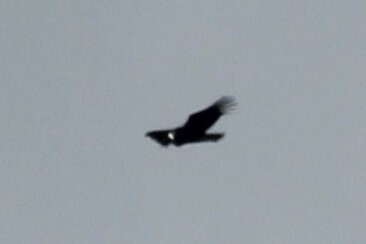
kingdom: Animalia
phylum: Chordata
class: Aves
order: Accipitriformes
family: Cathartidae
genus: Vultur
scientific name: Vultur gryphus
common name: Andean condor
